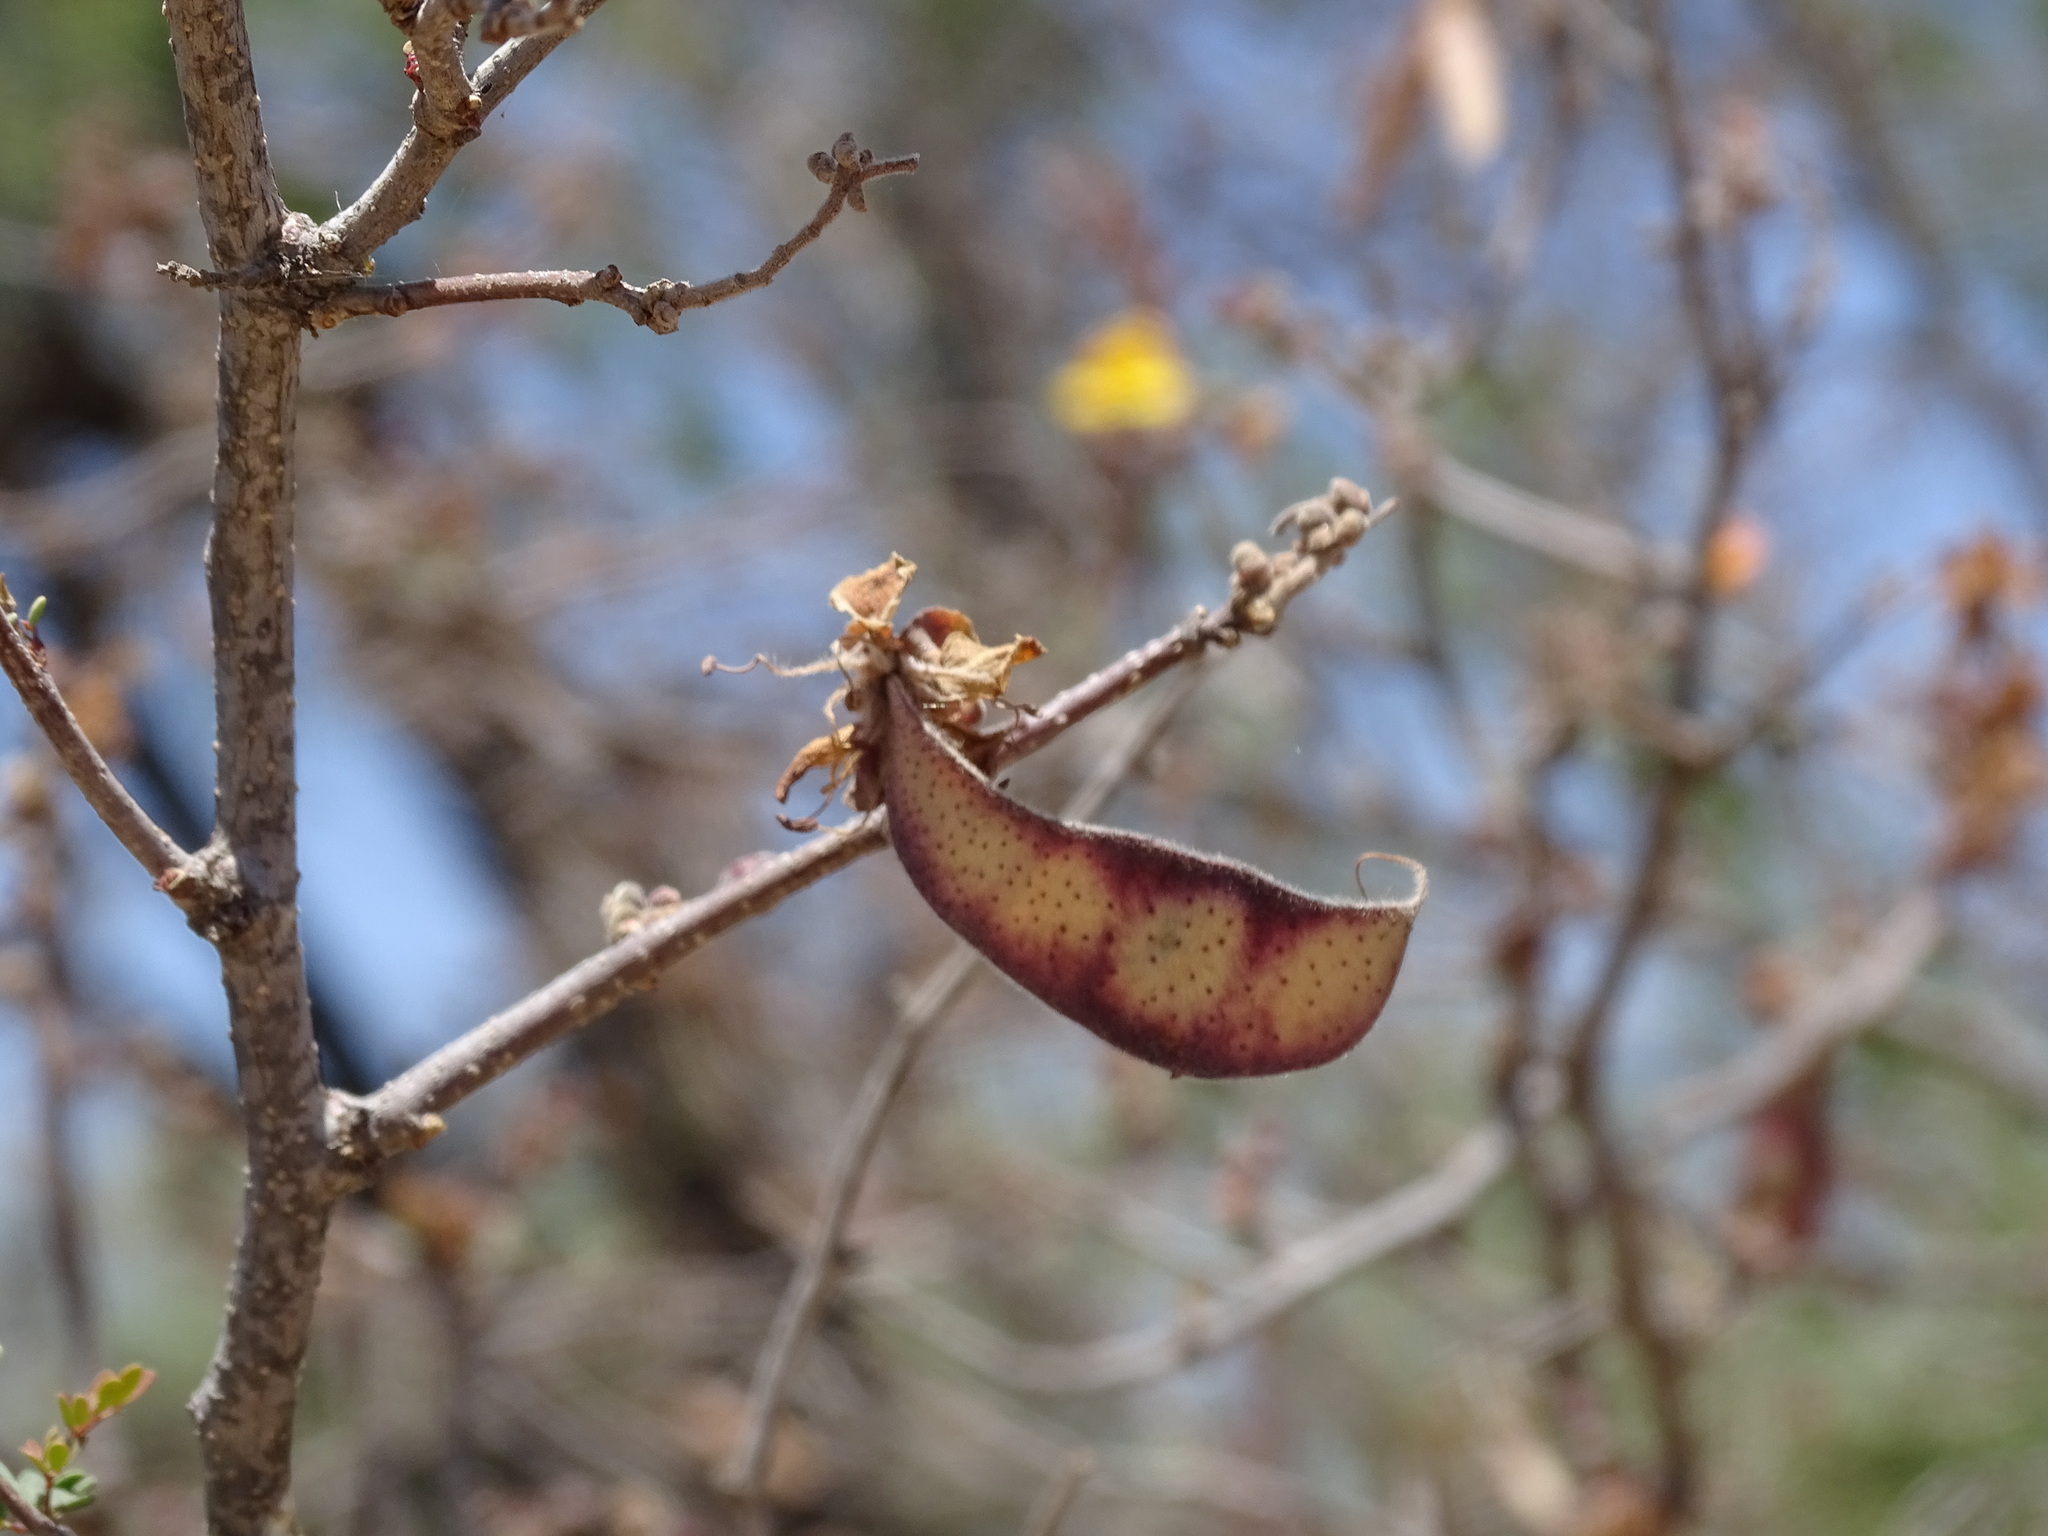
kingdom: Plantae
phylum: Tracheophyta
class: Magnoliopsida
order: Fabales
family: Fabaceae
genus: Erythrostemon
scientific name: Erythrostemon palmeri
